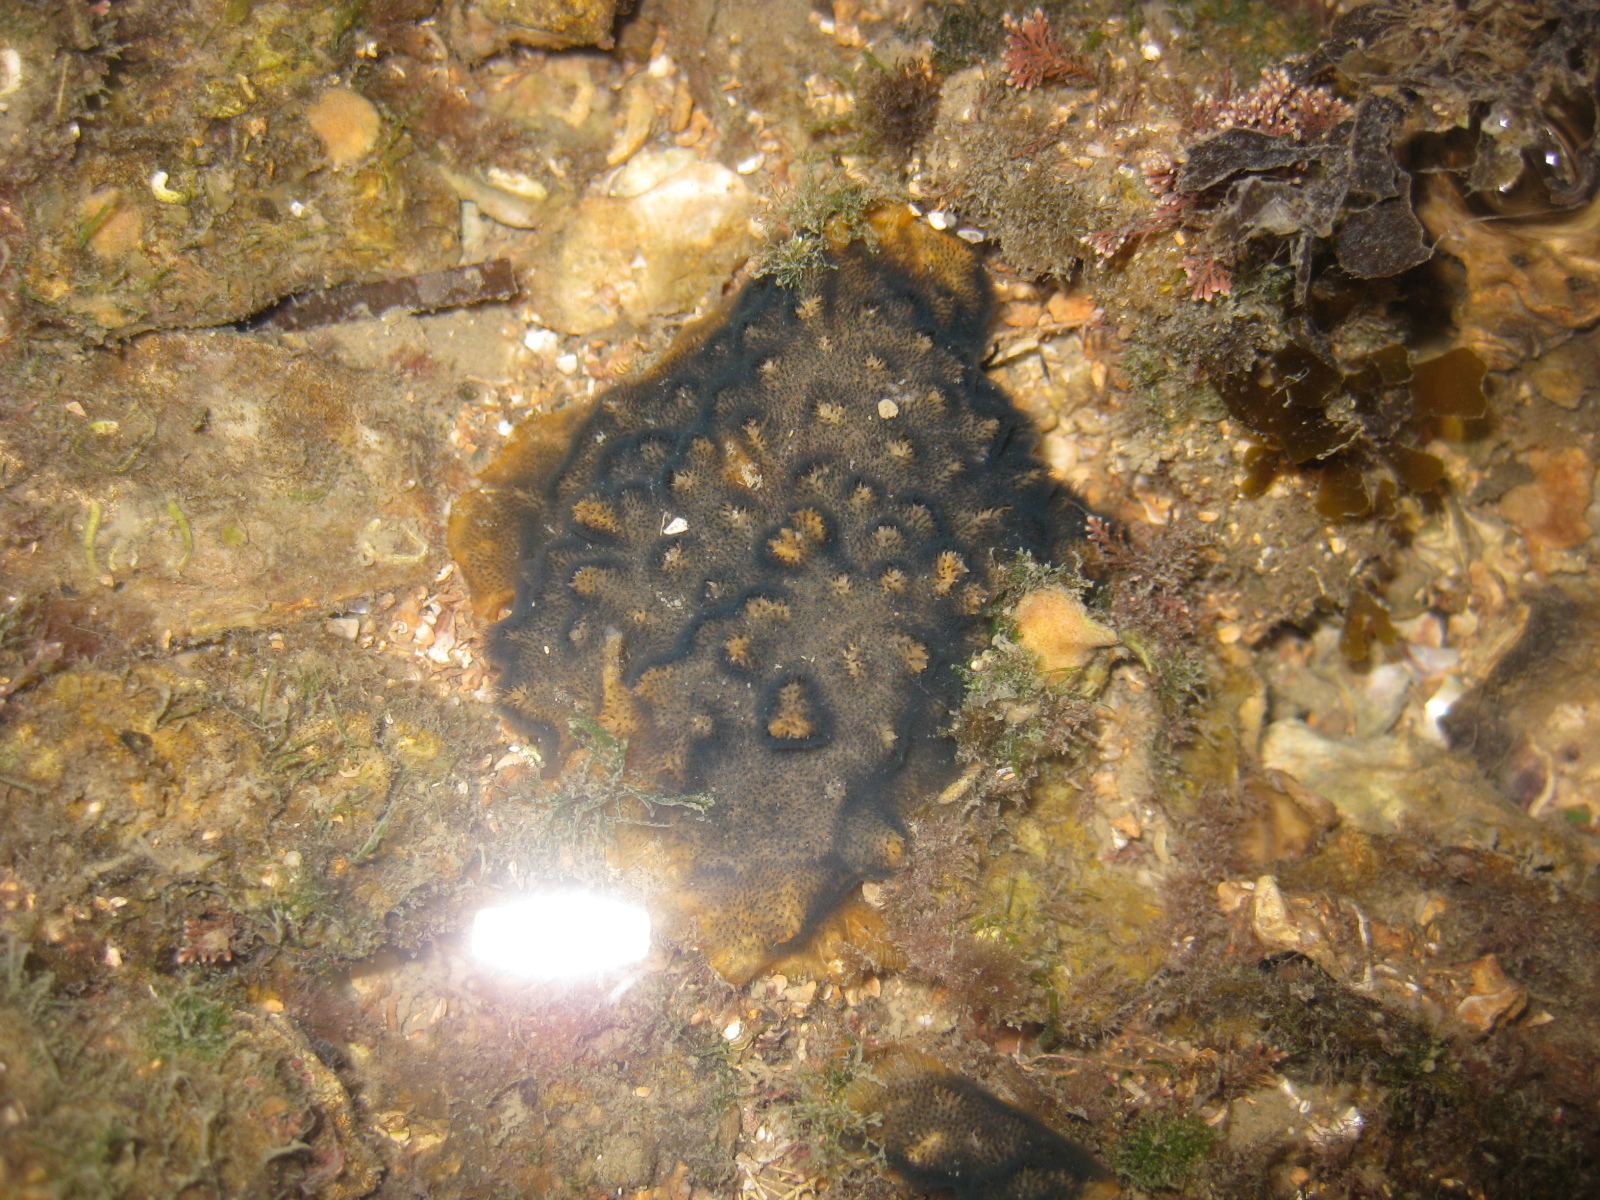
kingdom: Animalia
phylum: Bryozoa
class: Gymnolaemata
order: Cheilostomatida
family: Celleporidae
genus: Celleporaria
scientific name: Celleporaria nodulosa
